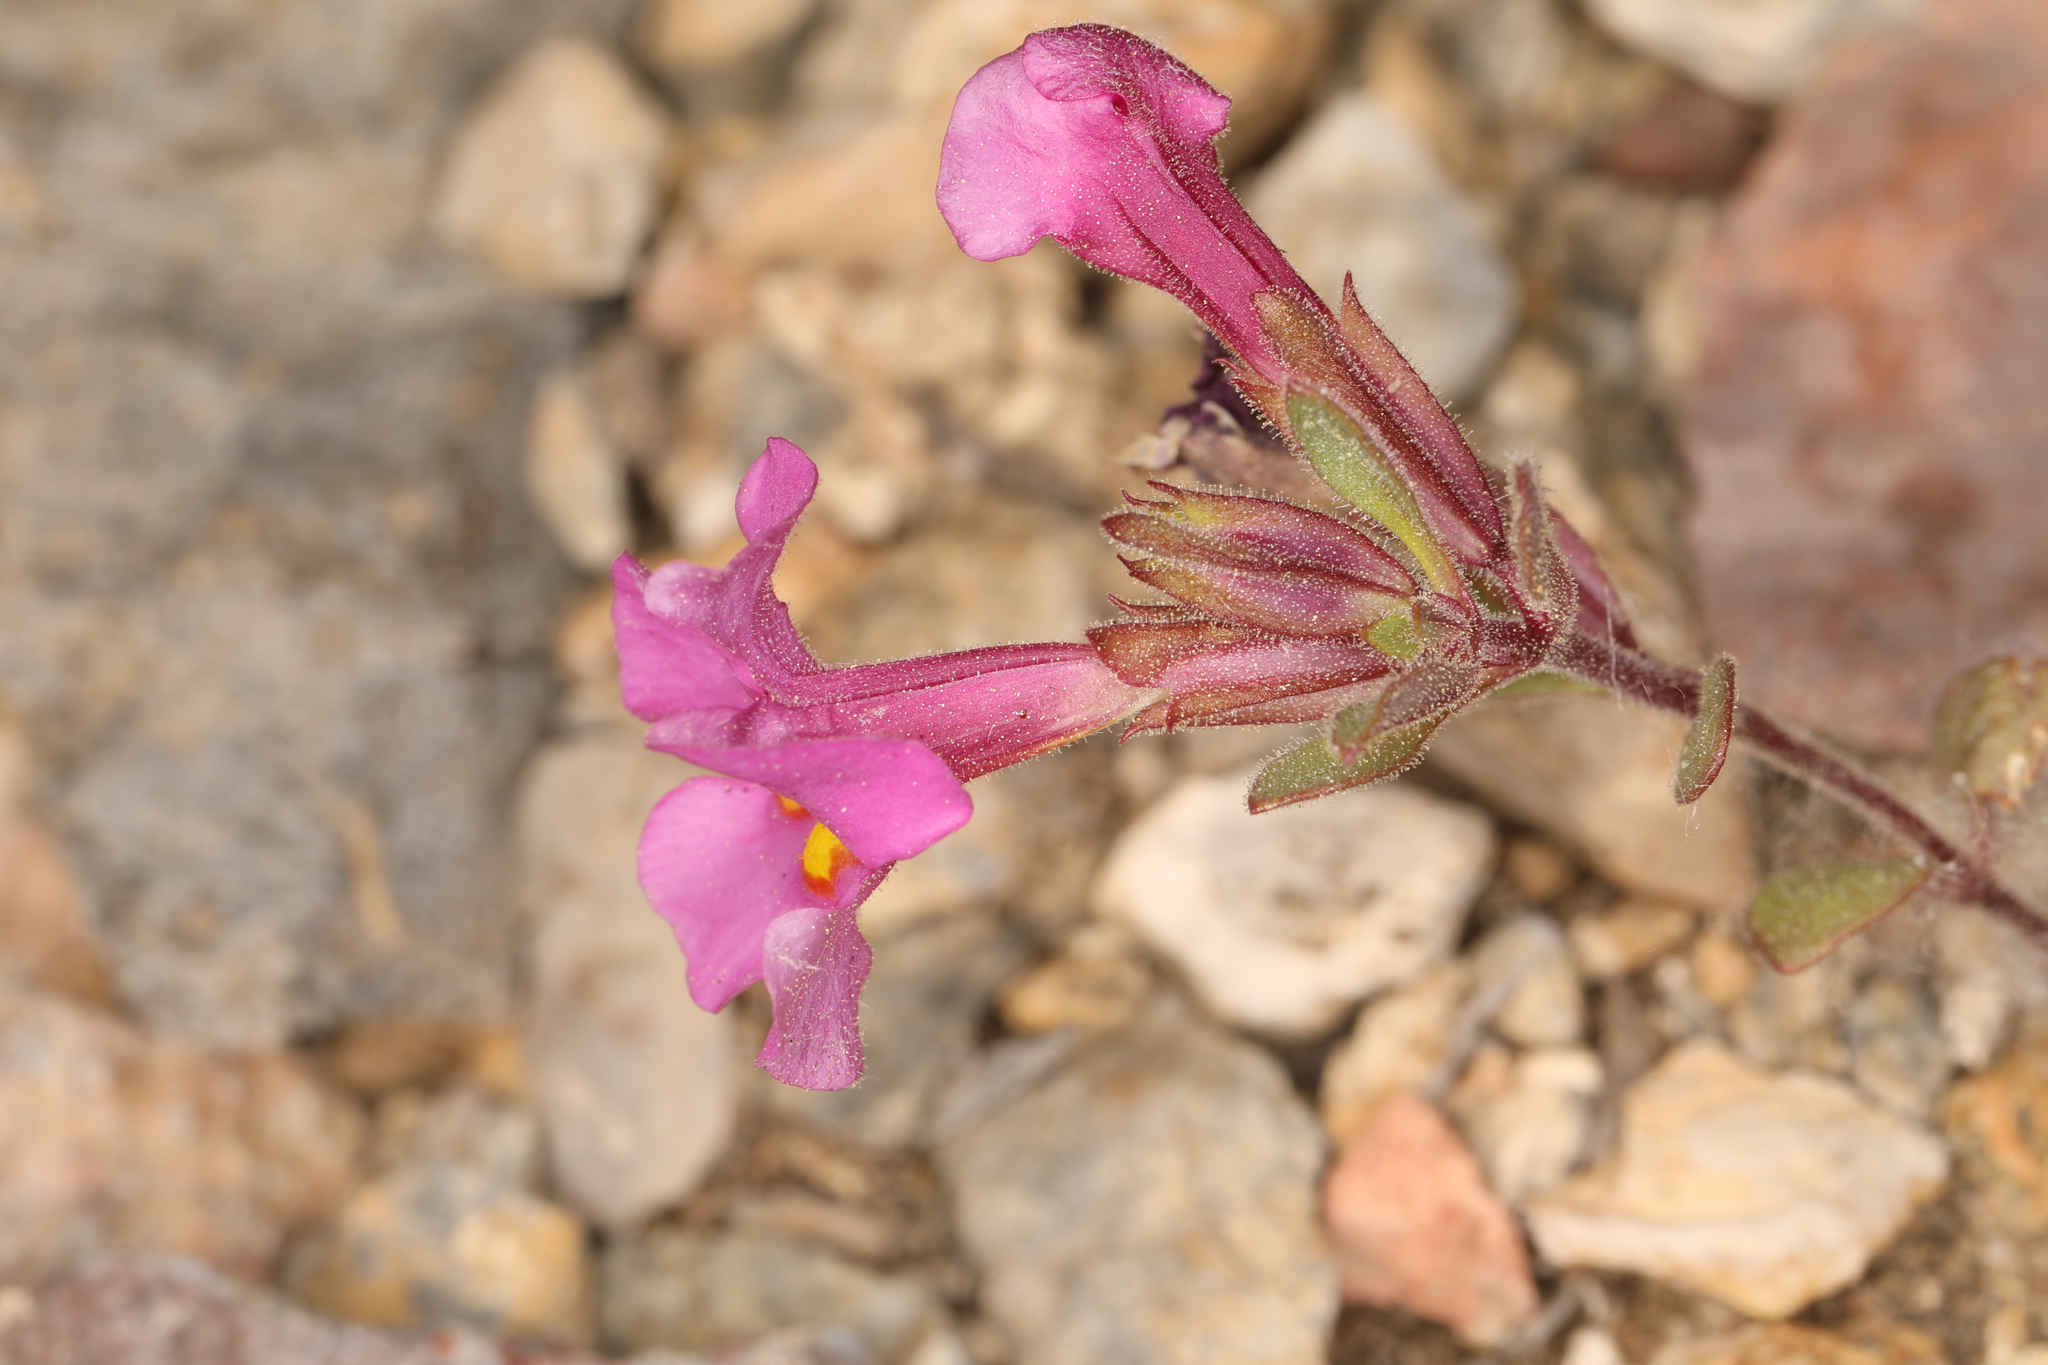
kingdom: Plantae
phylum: Tracheophyta
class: Magnoliopsida
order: Lamiales
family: Phrymaceae
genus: Diplacus
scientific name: Diplacus parryi
